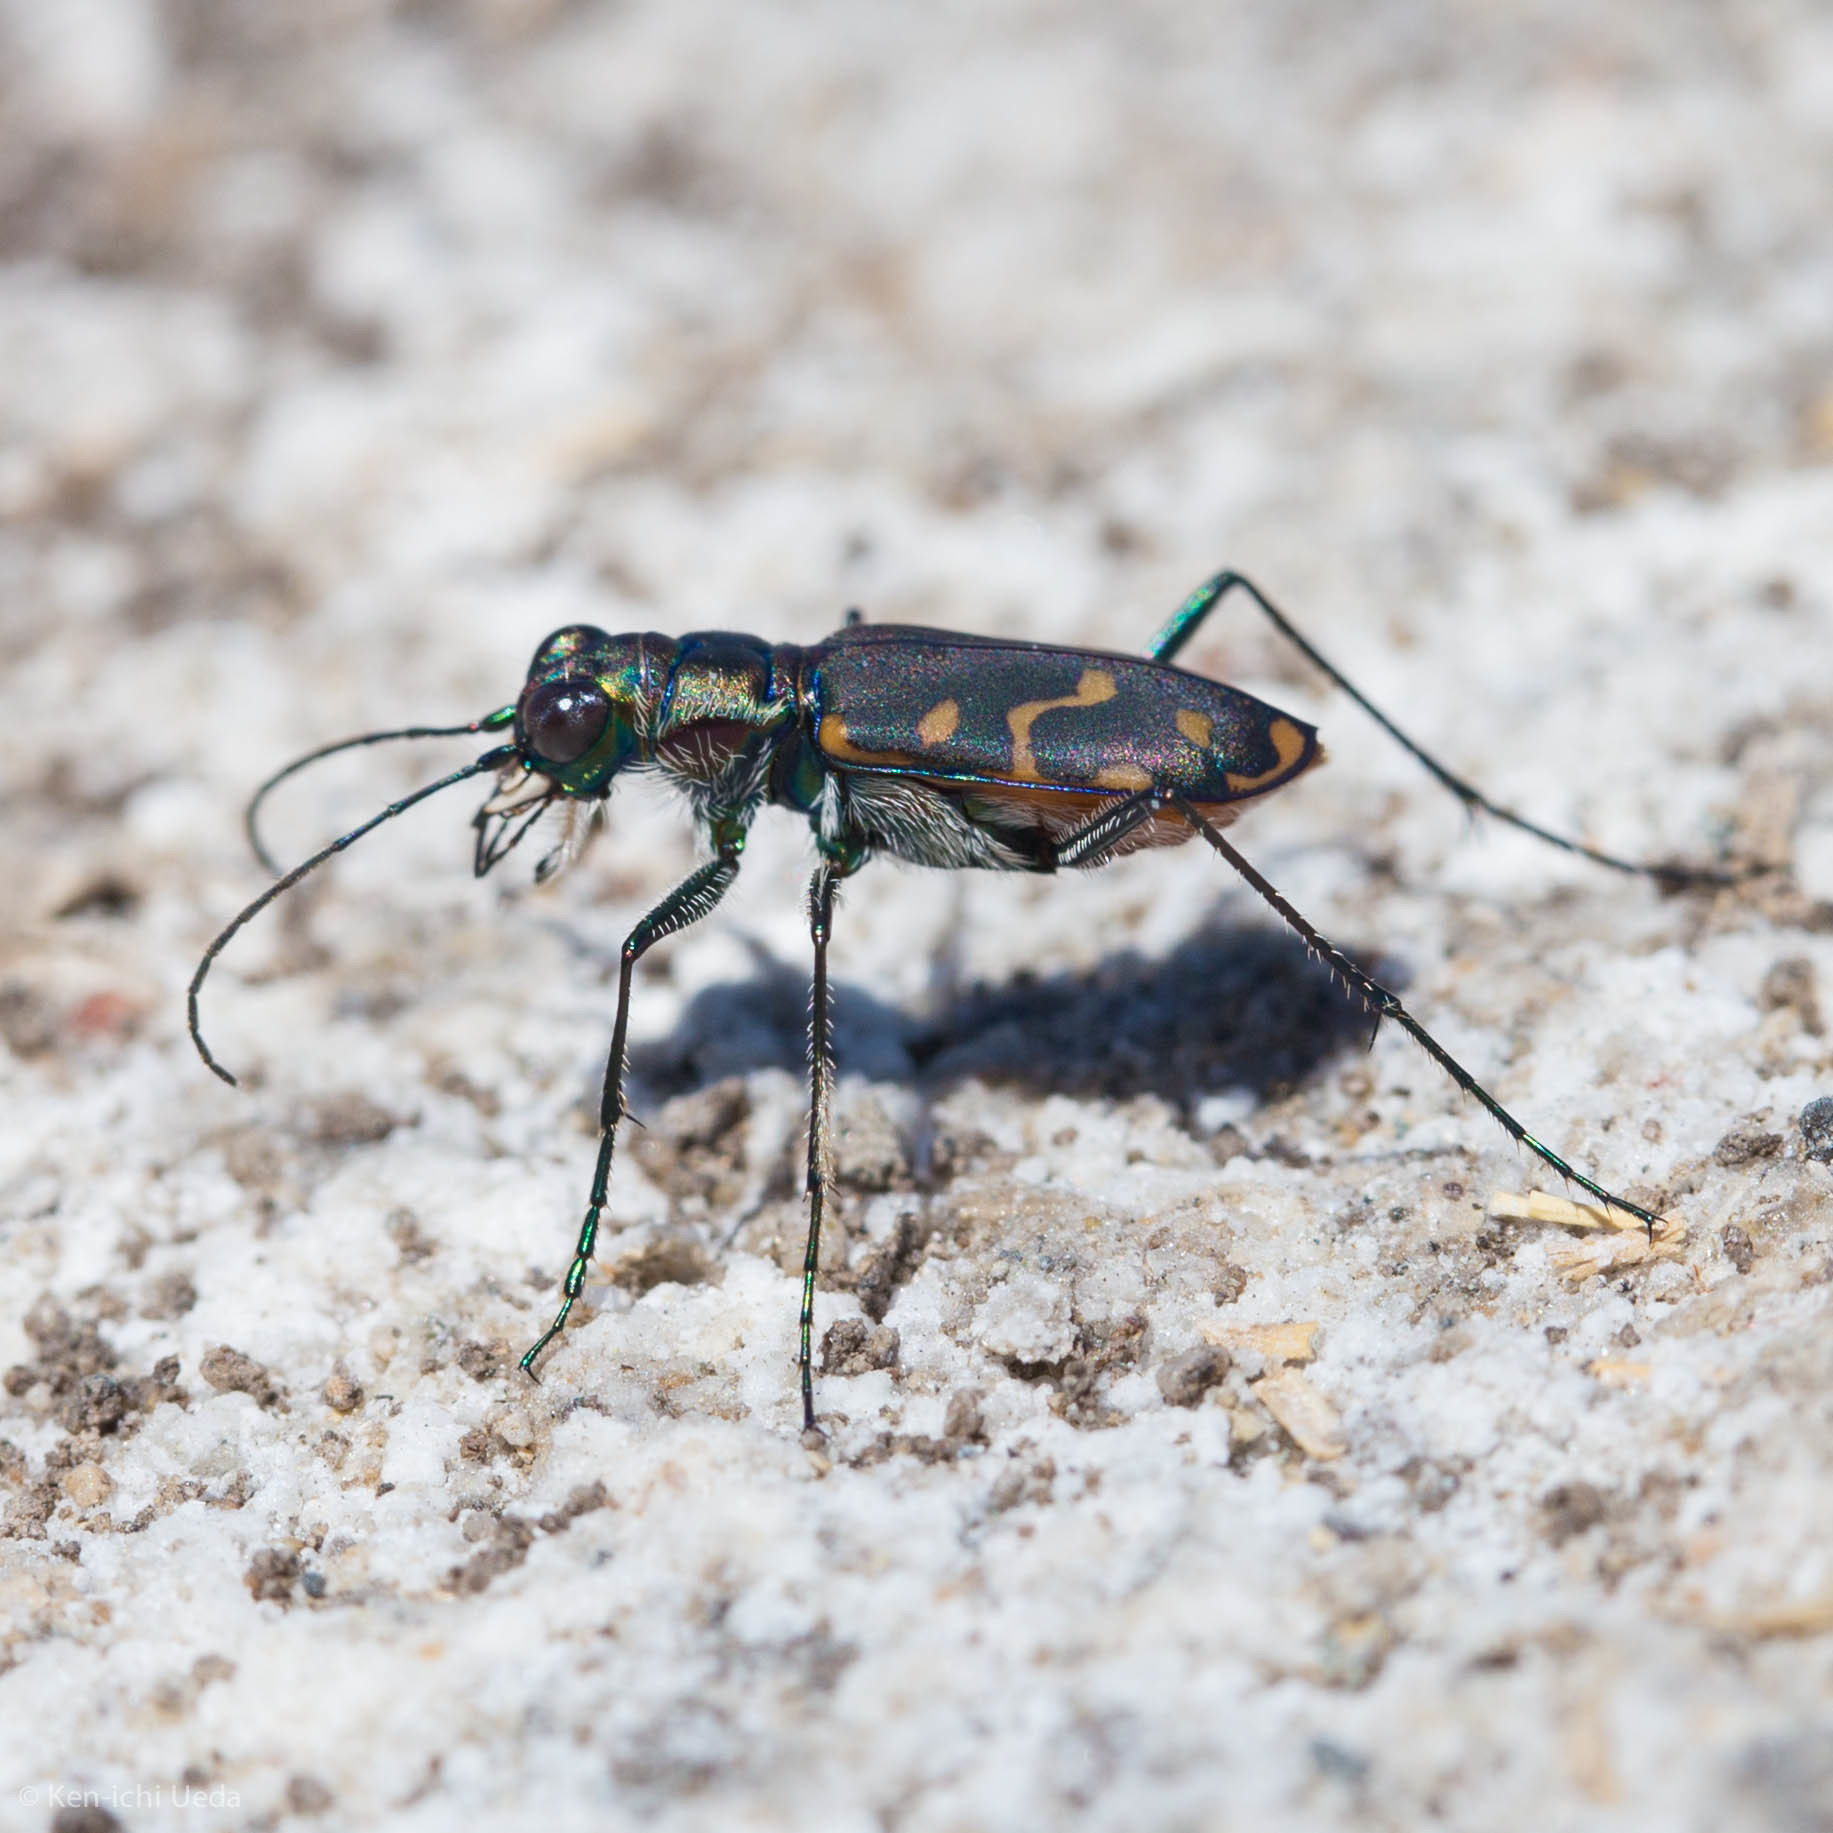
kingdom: Animalia
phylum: Arthropoda
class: Insecta
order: Coleoptera
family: Carabidae
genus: Cicindela
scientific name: Cicindela hemorrhagica
